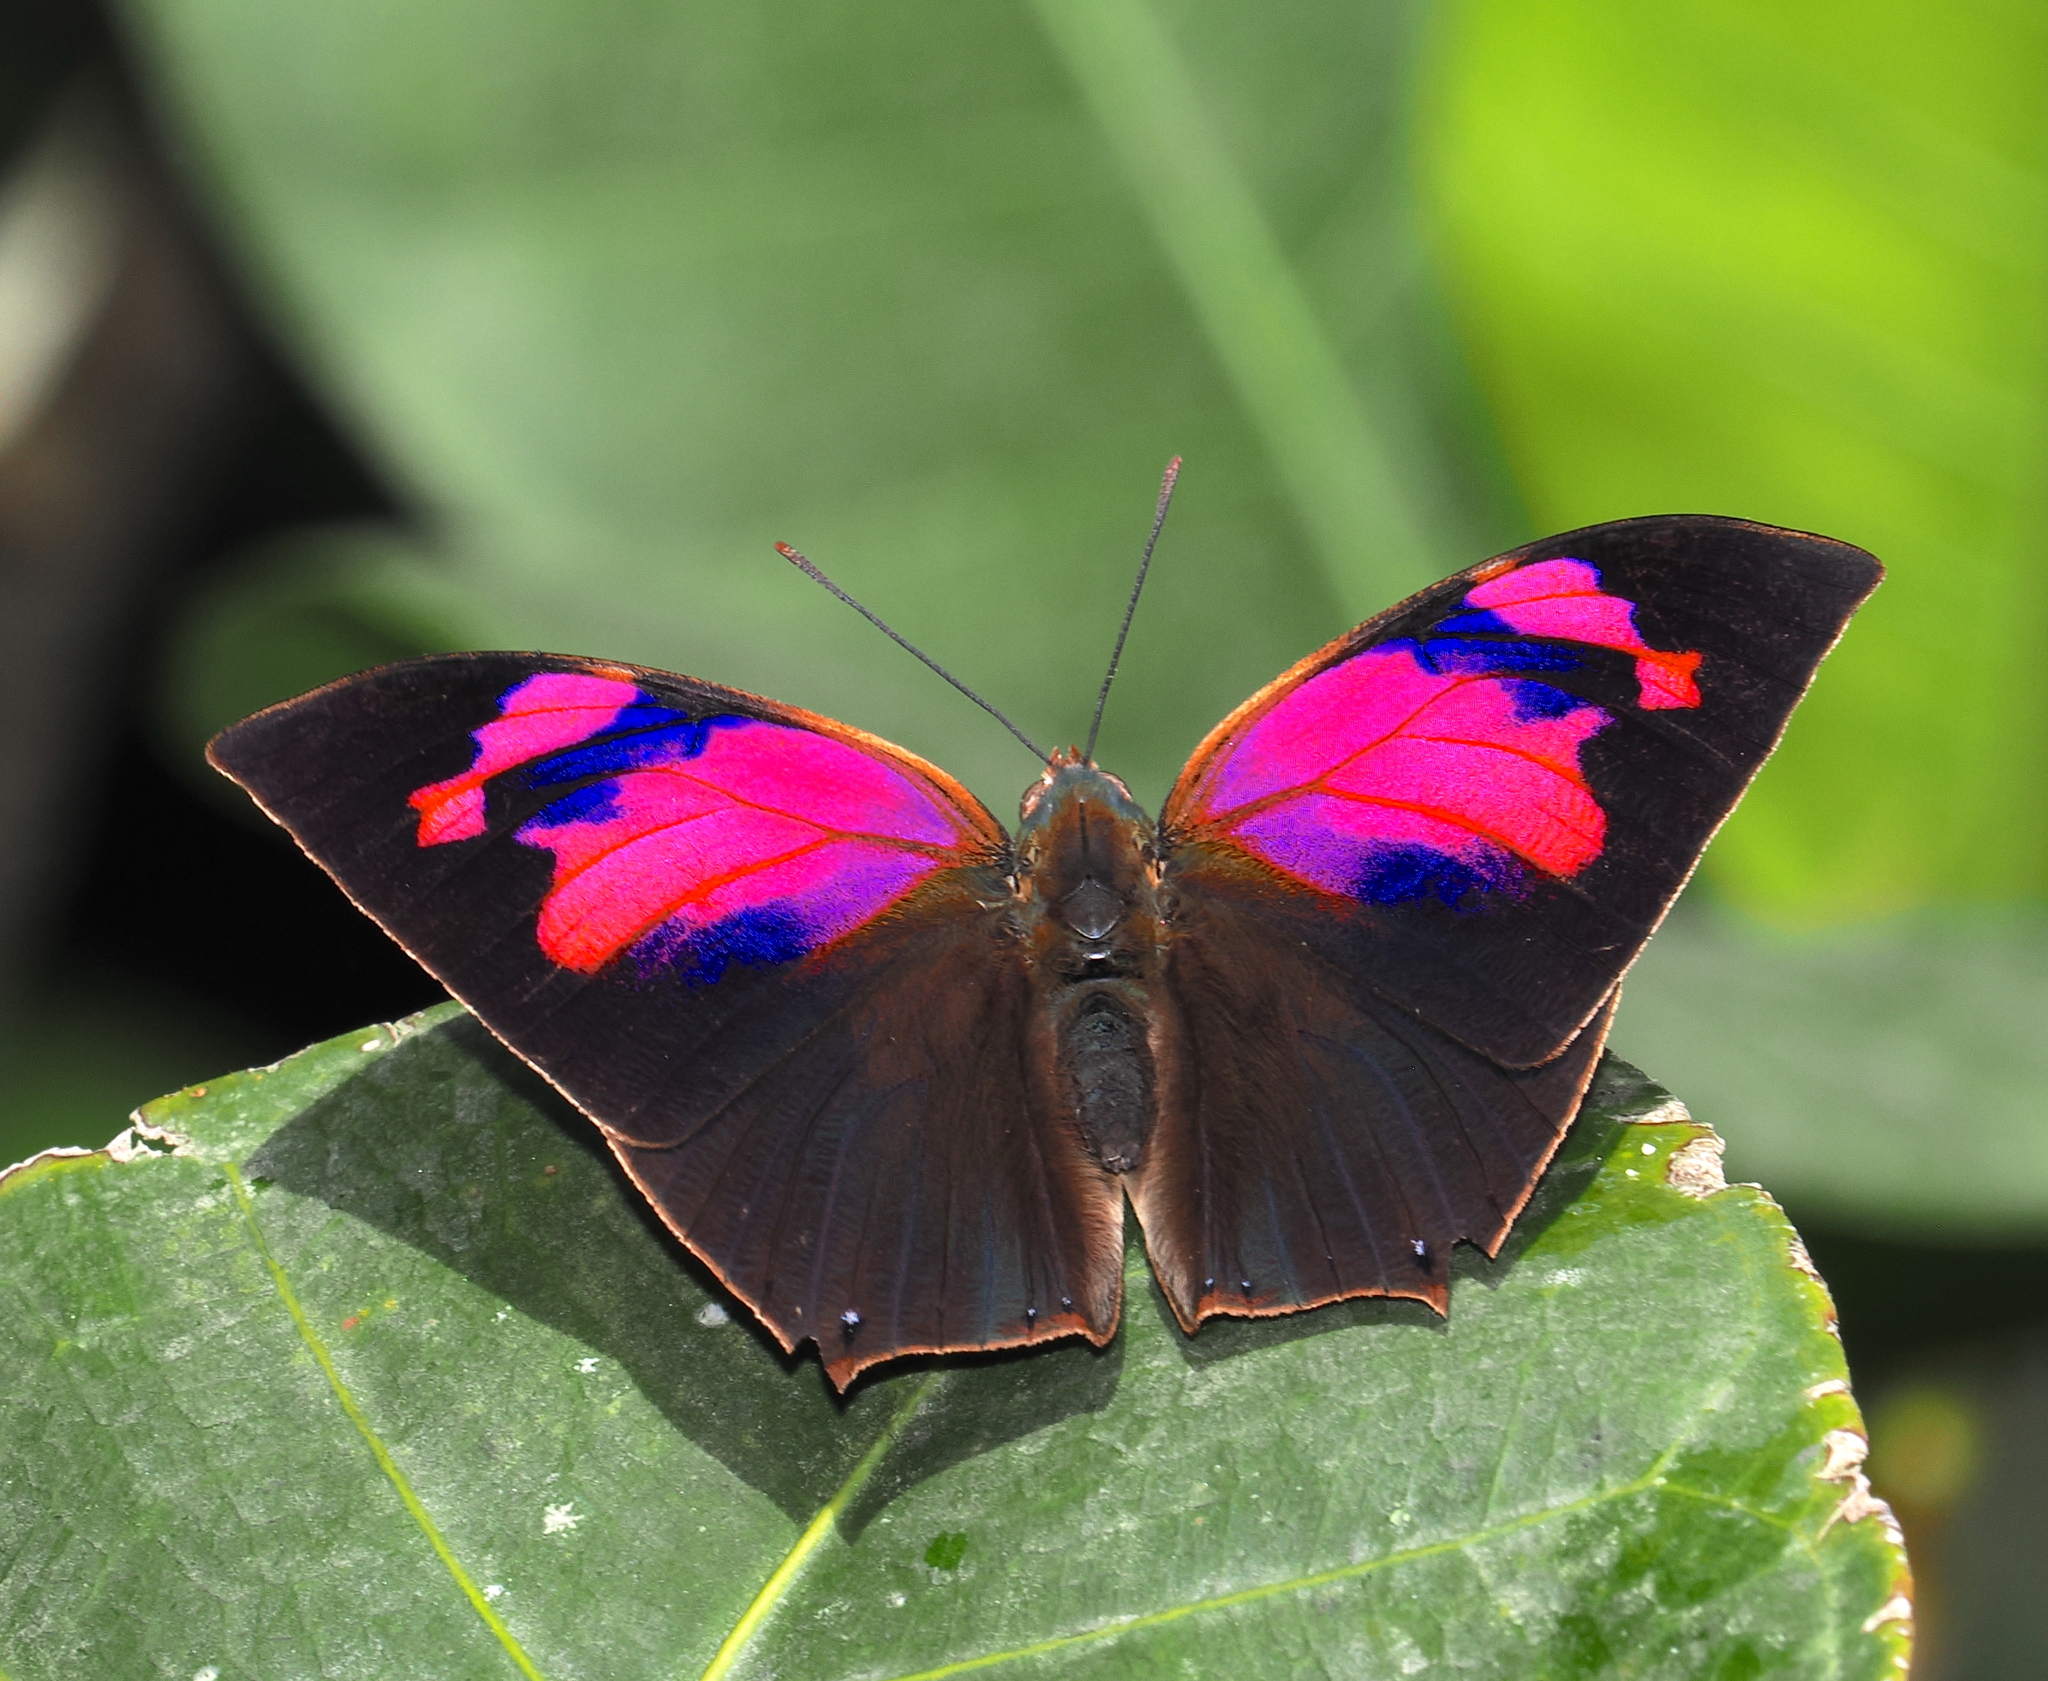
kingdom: Animalia
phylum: Arthropoda
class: Insecta
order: Lepidoptera
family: Nymphalidae
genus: Fountainea
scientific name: Fountainea
